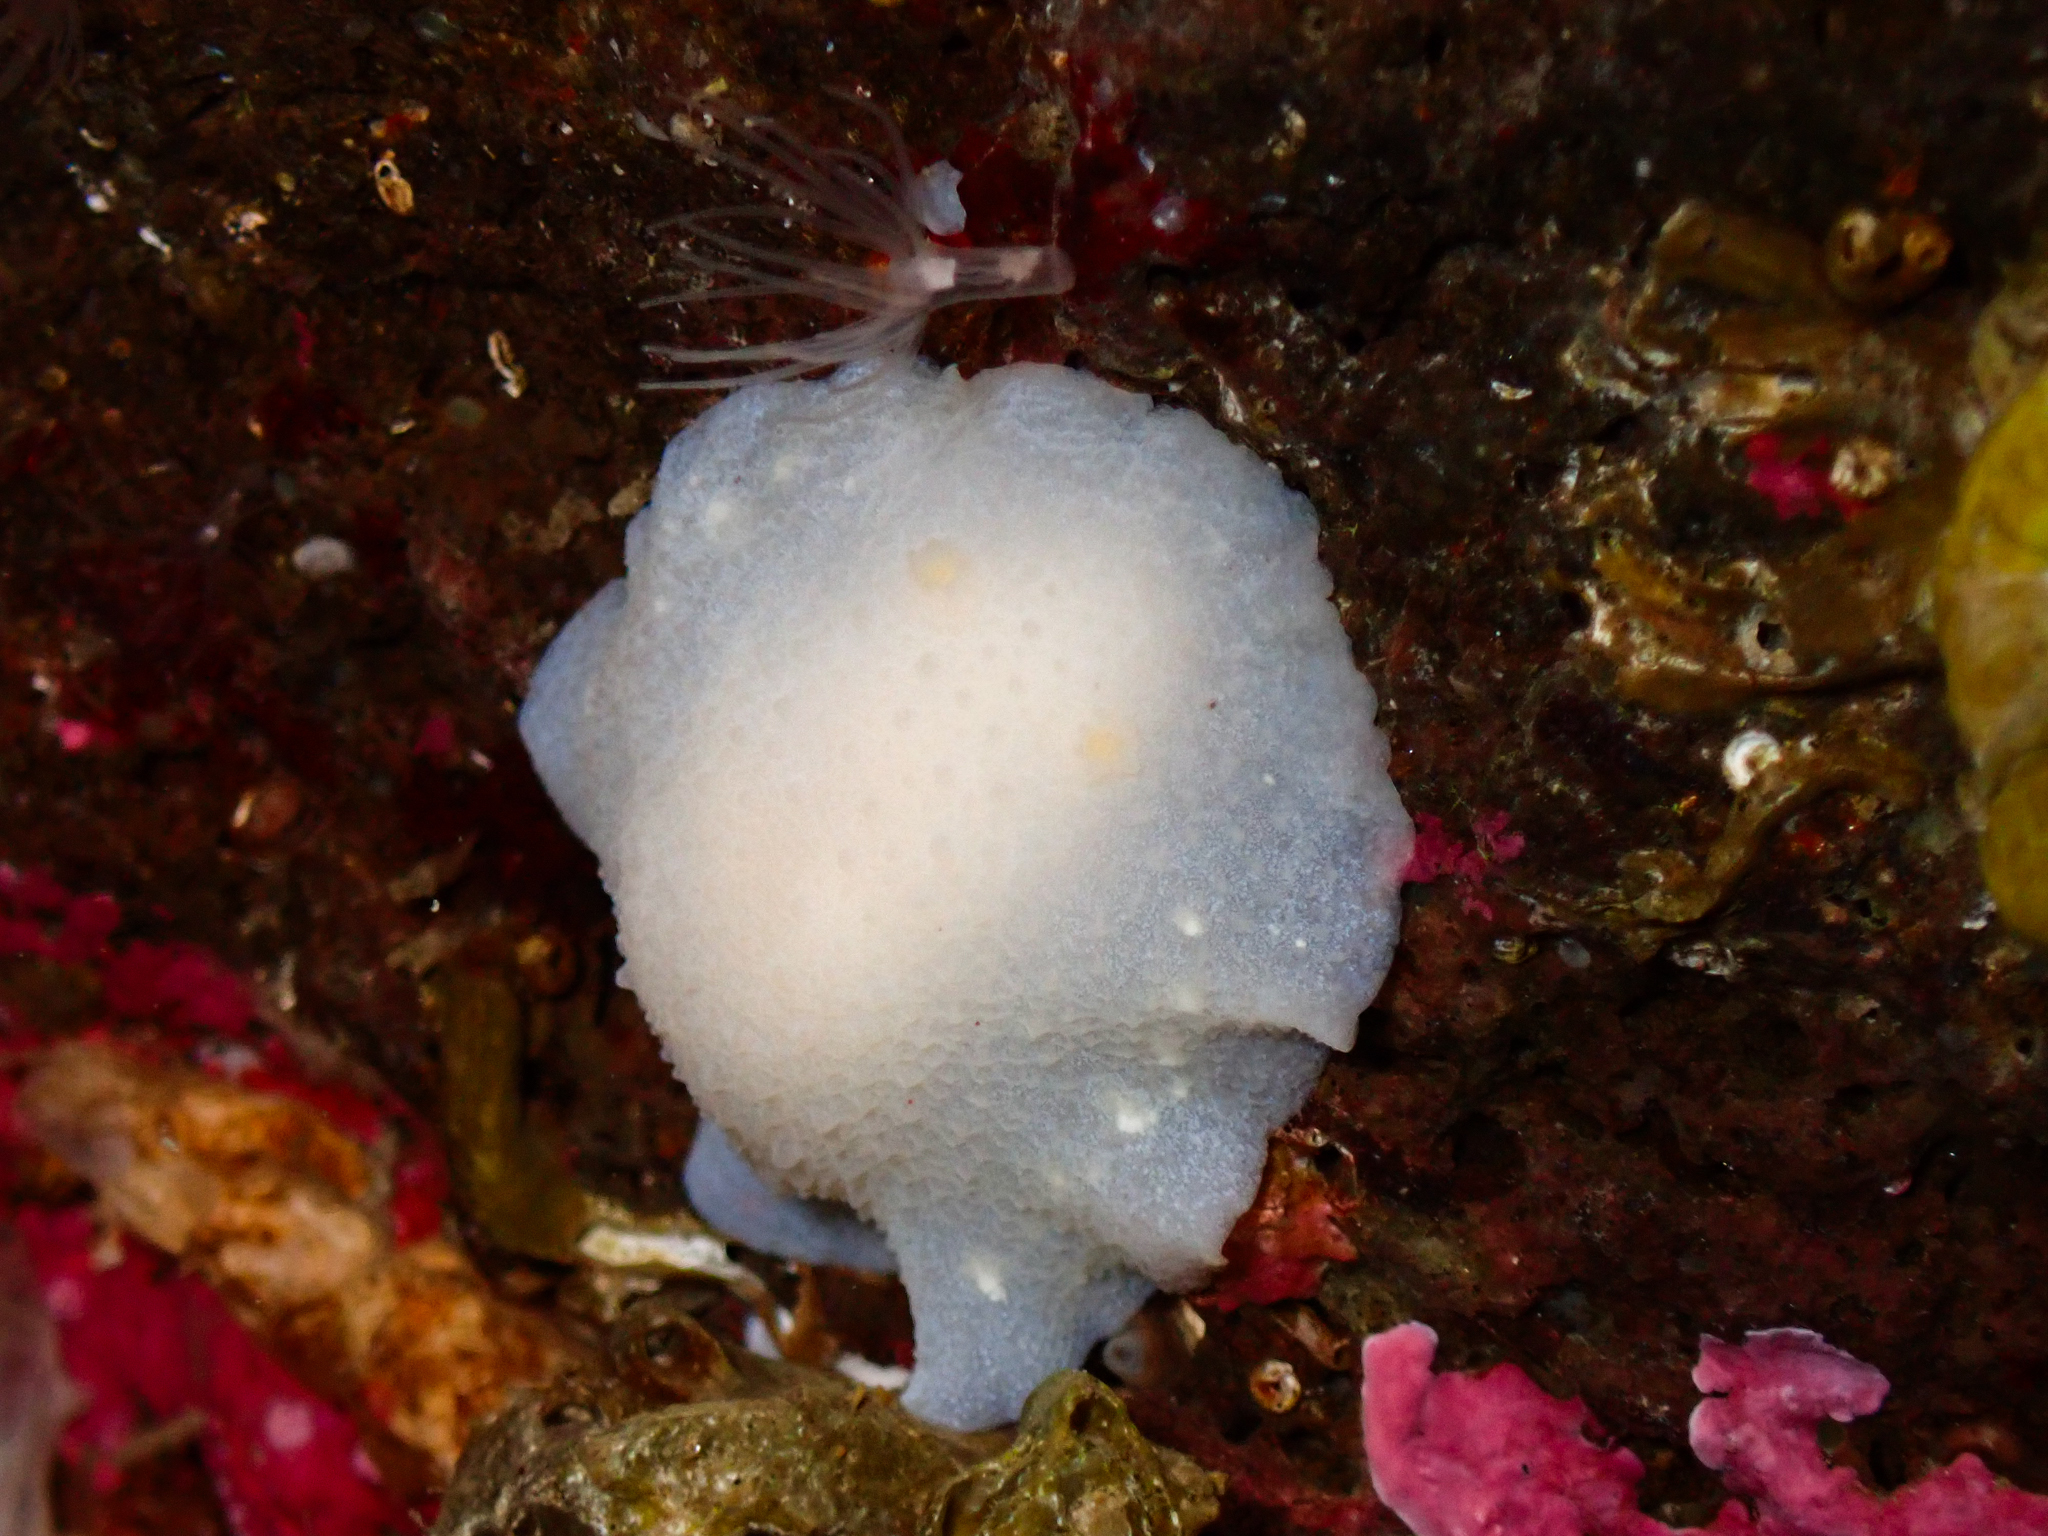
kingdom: Animalia
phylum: Mollusca
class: Gastropoda
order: Nudibranchia
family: Cadlinidae
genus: Cadlina
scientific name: Cadlina laevis
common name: White atlantic cadlina
